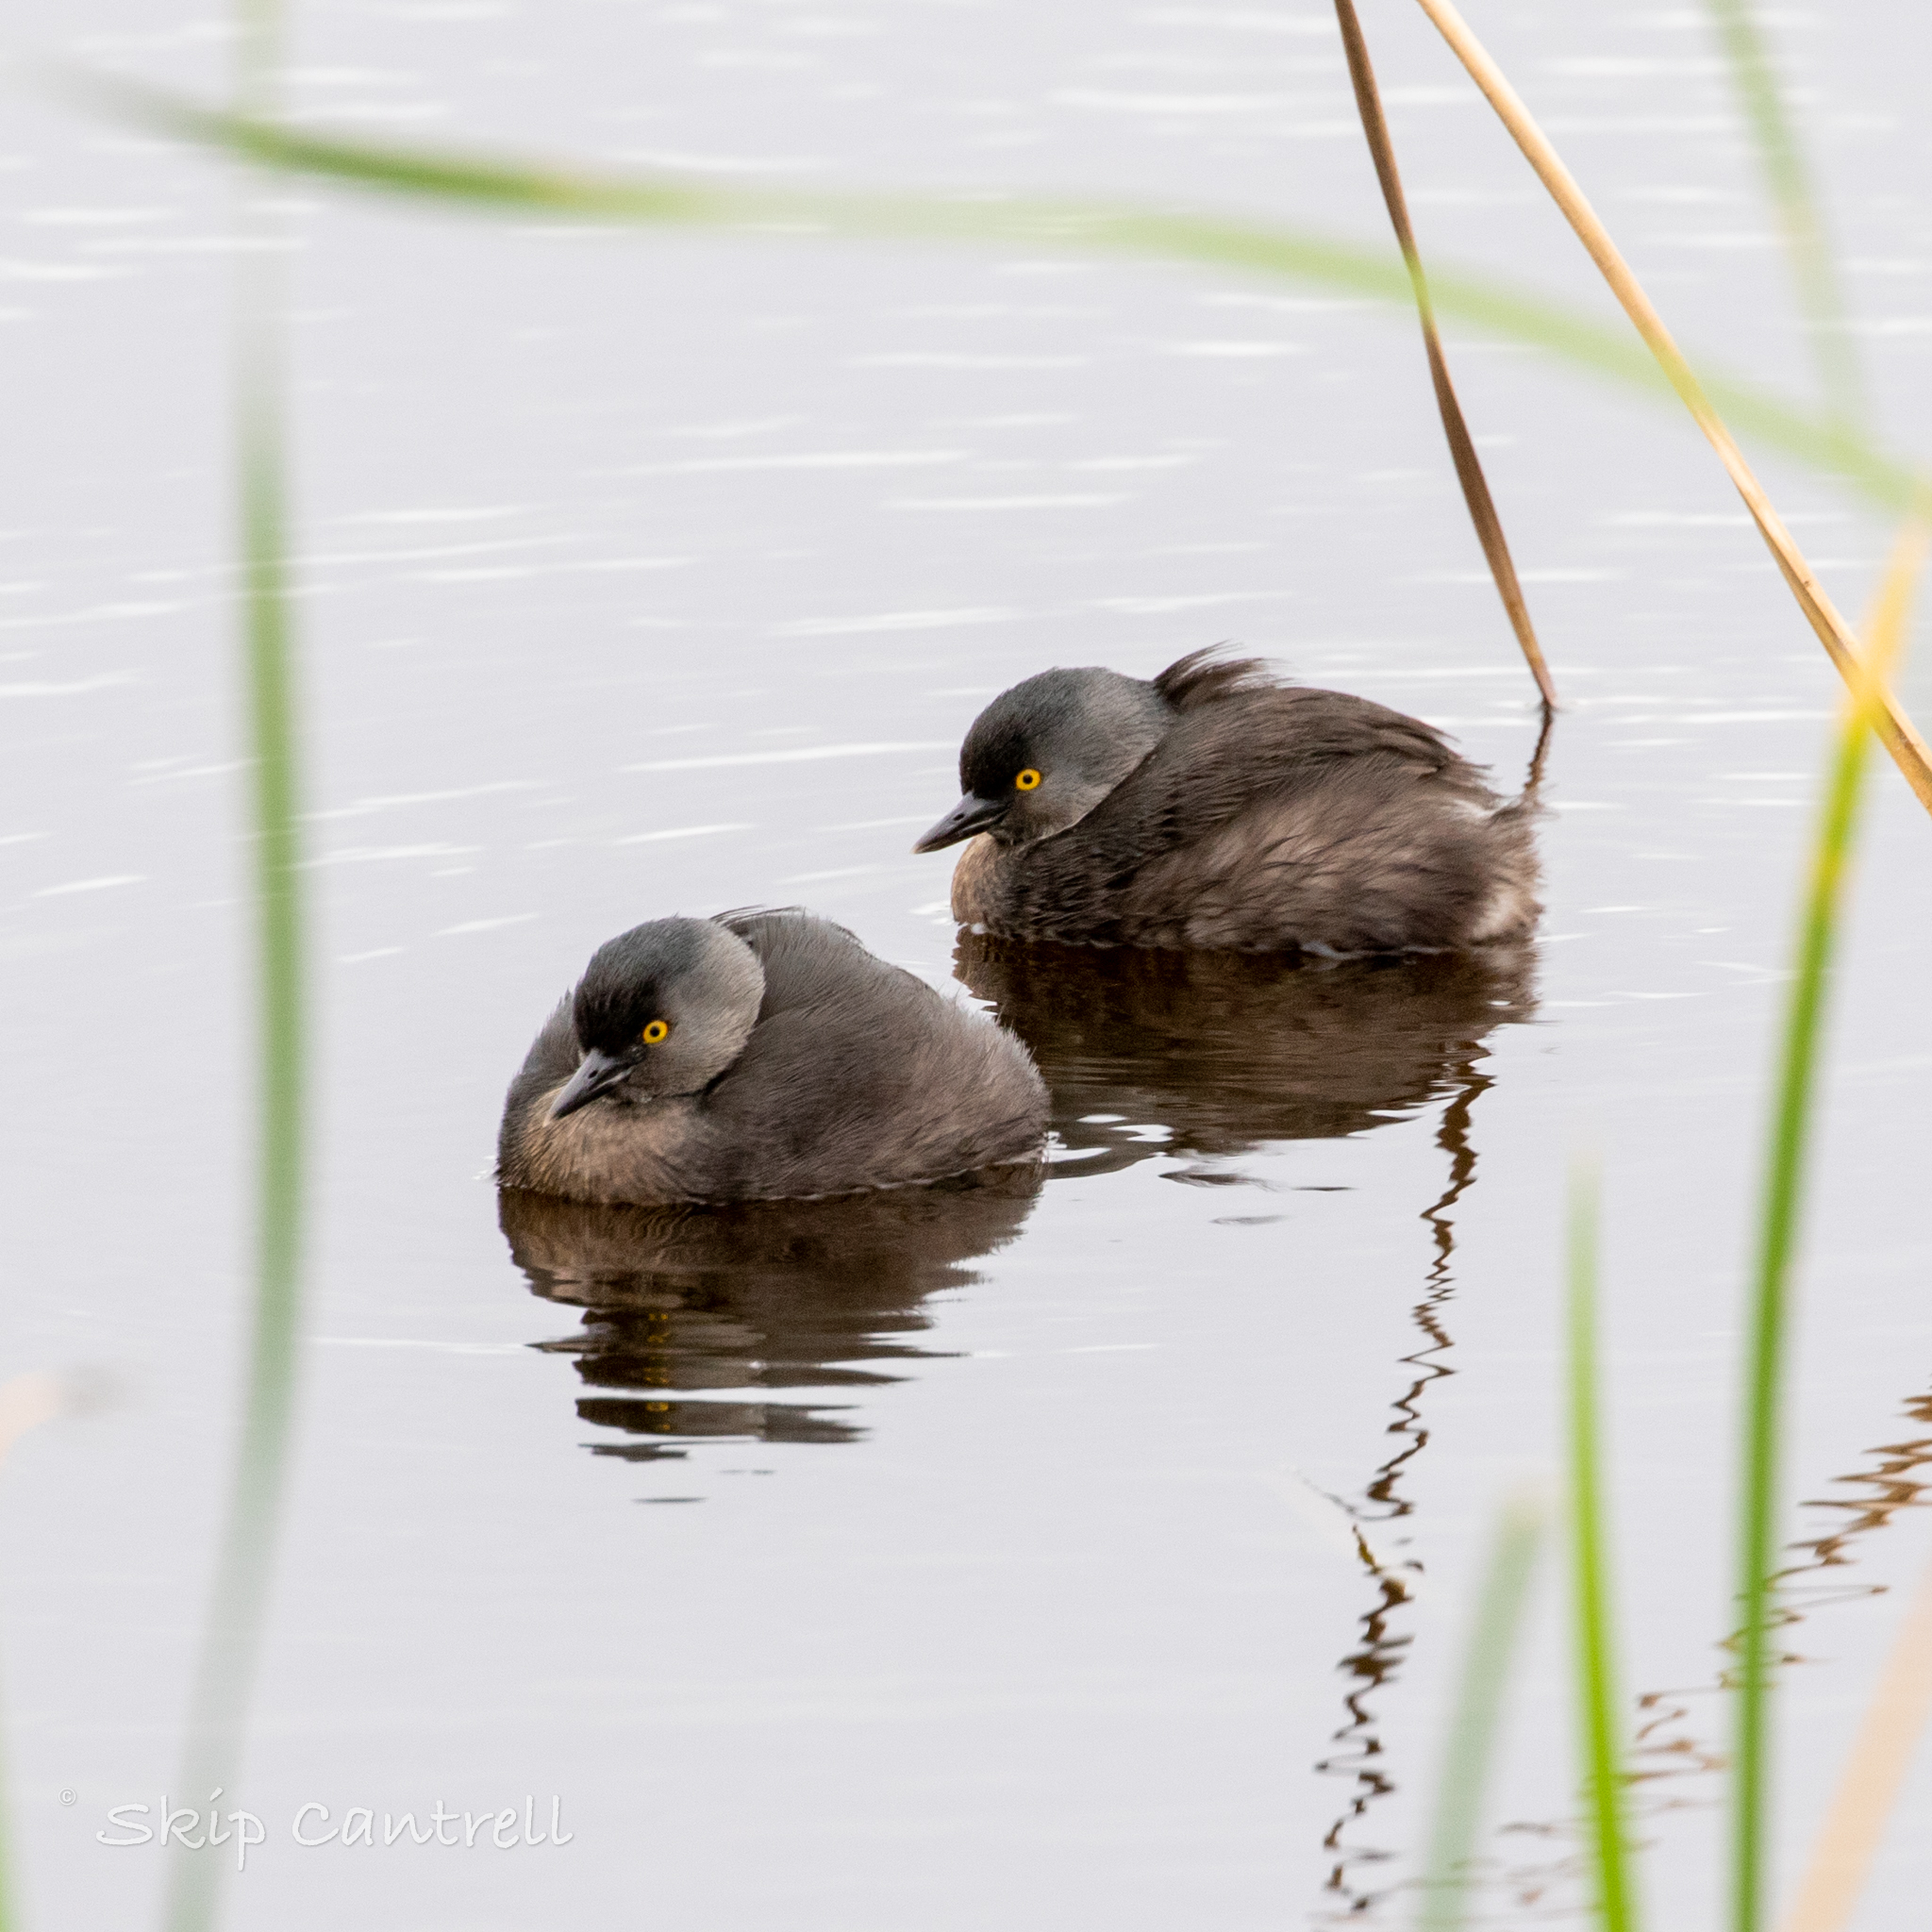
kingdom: Animalia
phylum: Chordata
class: Aves
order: Podicipediformes
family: Podicipedidae
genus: Tachybaptus
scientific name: Tachybaptus dominicus
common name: Least grebe
